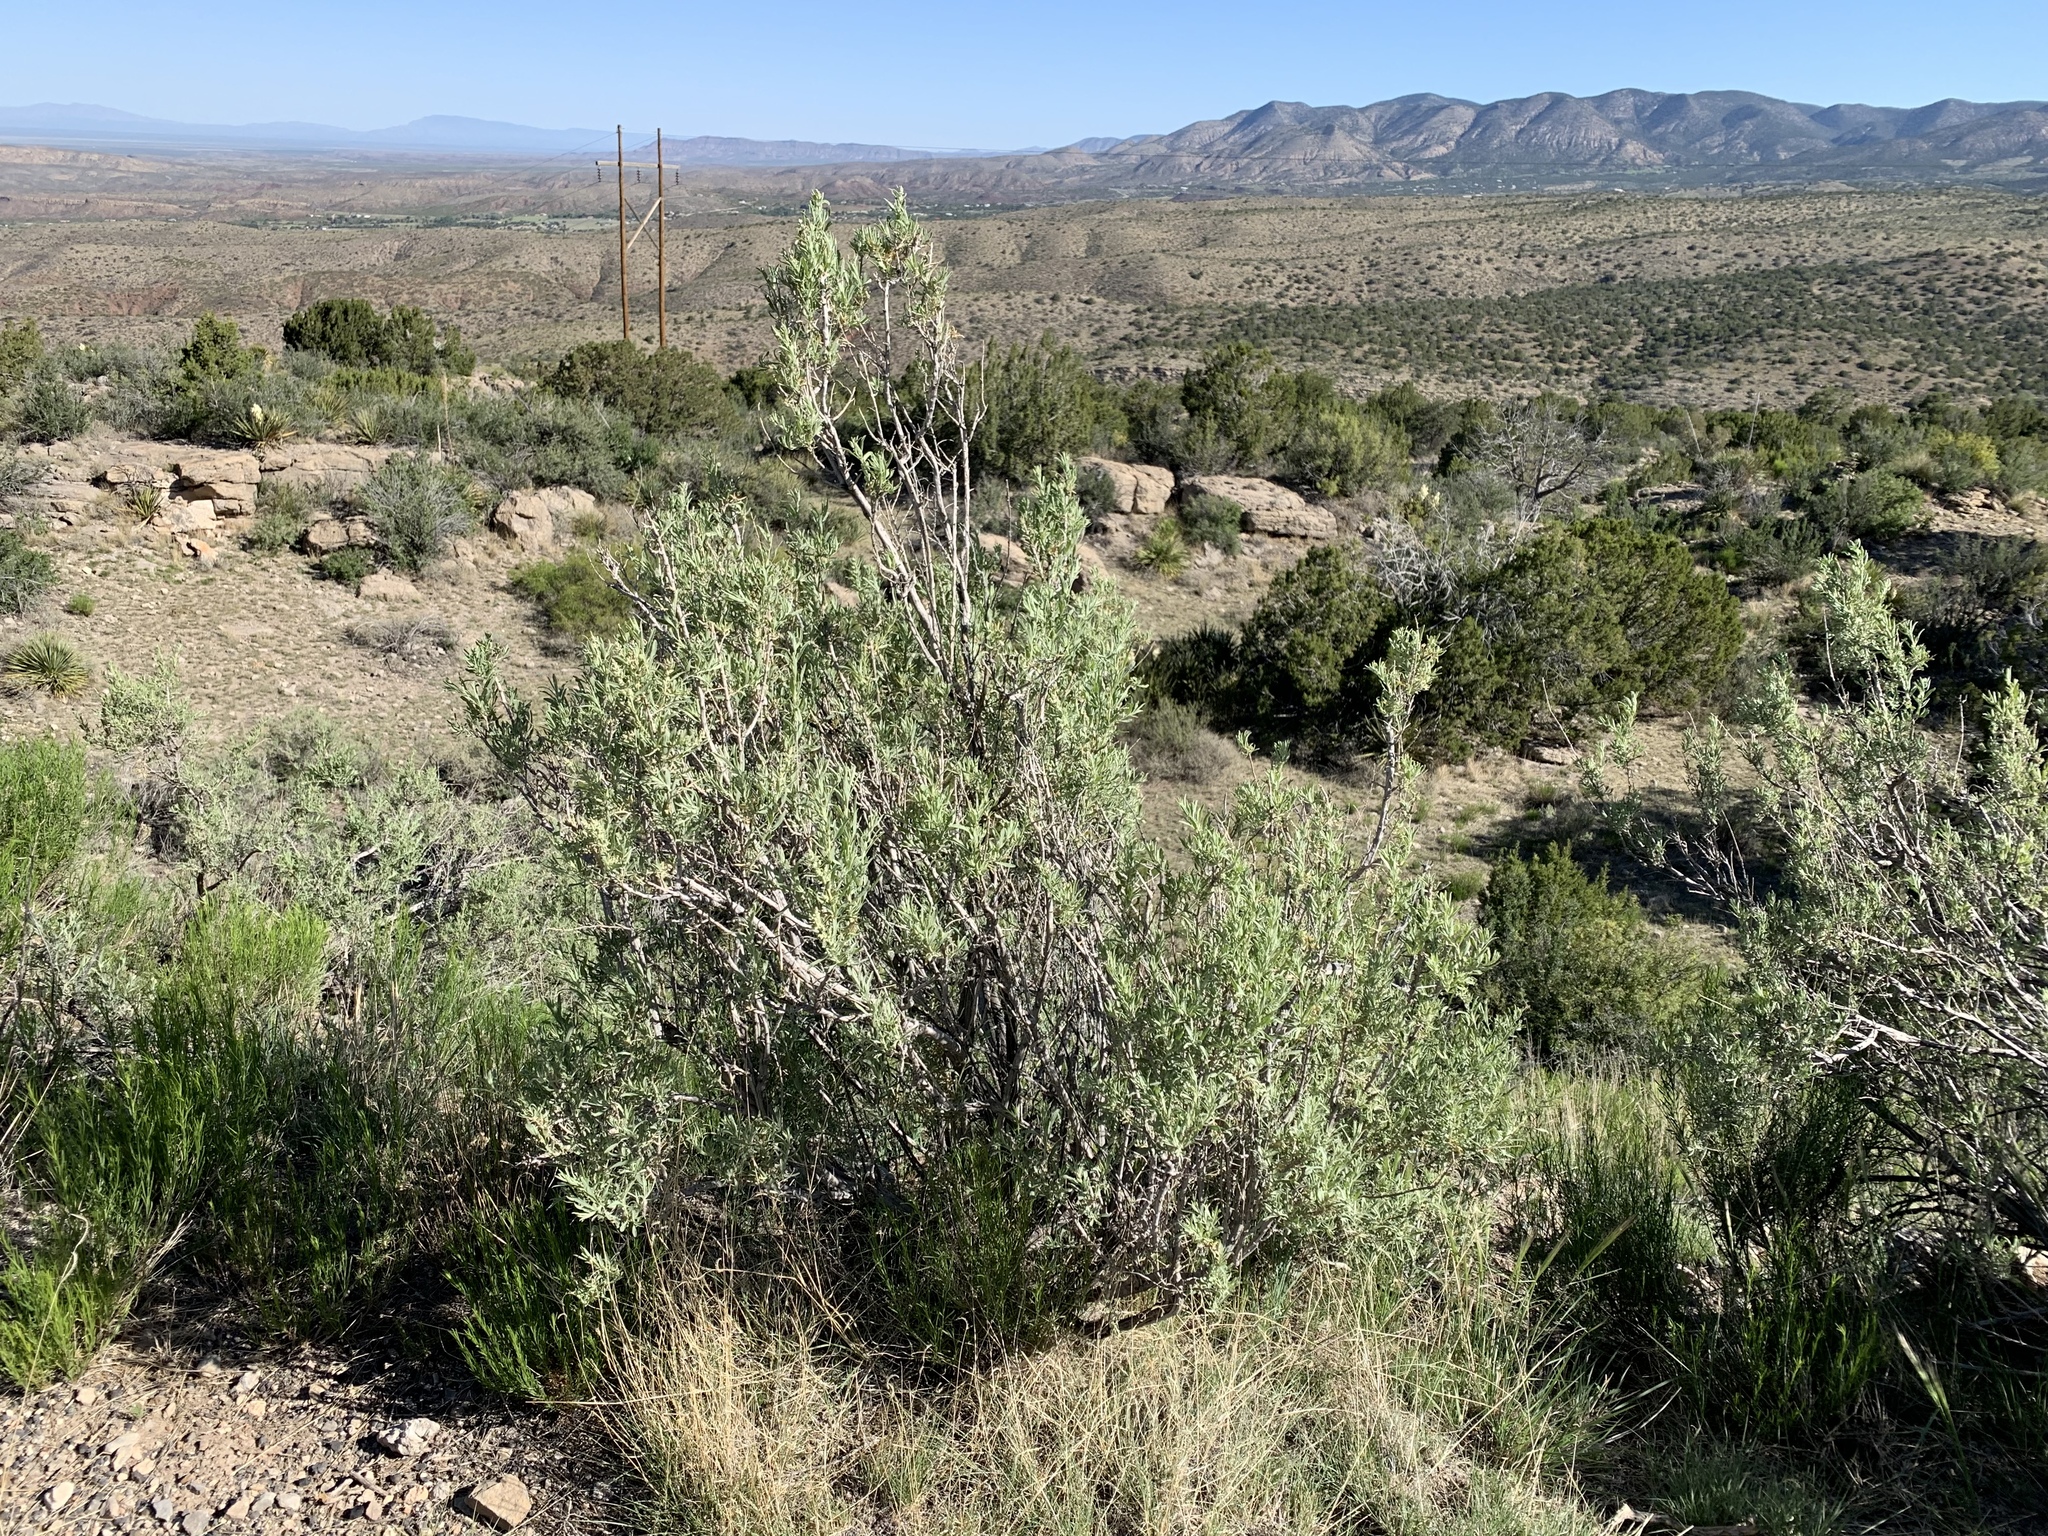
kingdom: Plantae
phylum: Tracheophyta
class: Magnoliopsida
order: Caryophyllales
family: Amaranthaceae
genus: Atriplex
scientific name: Atriplex canescens
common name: Four-wing saltbush
